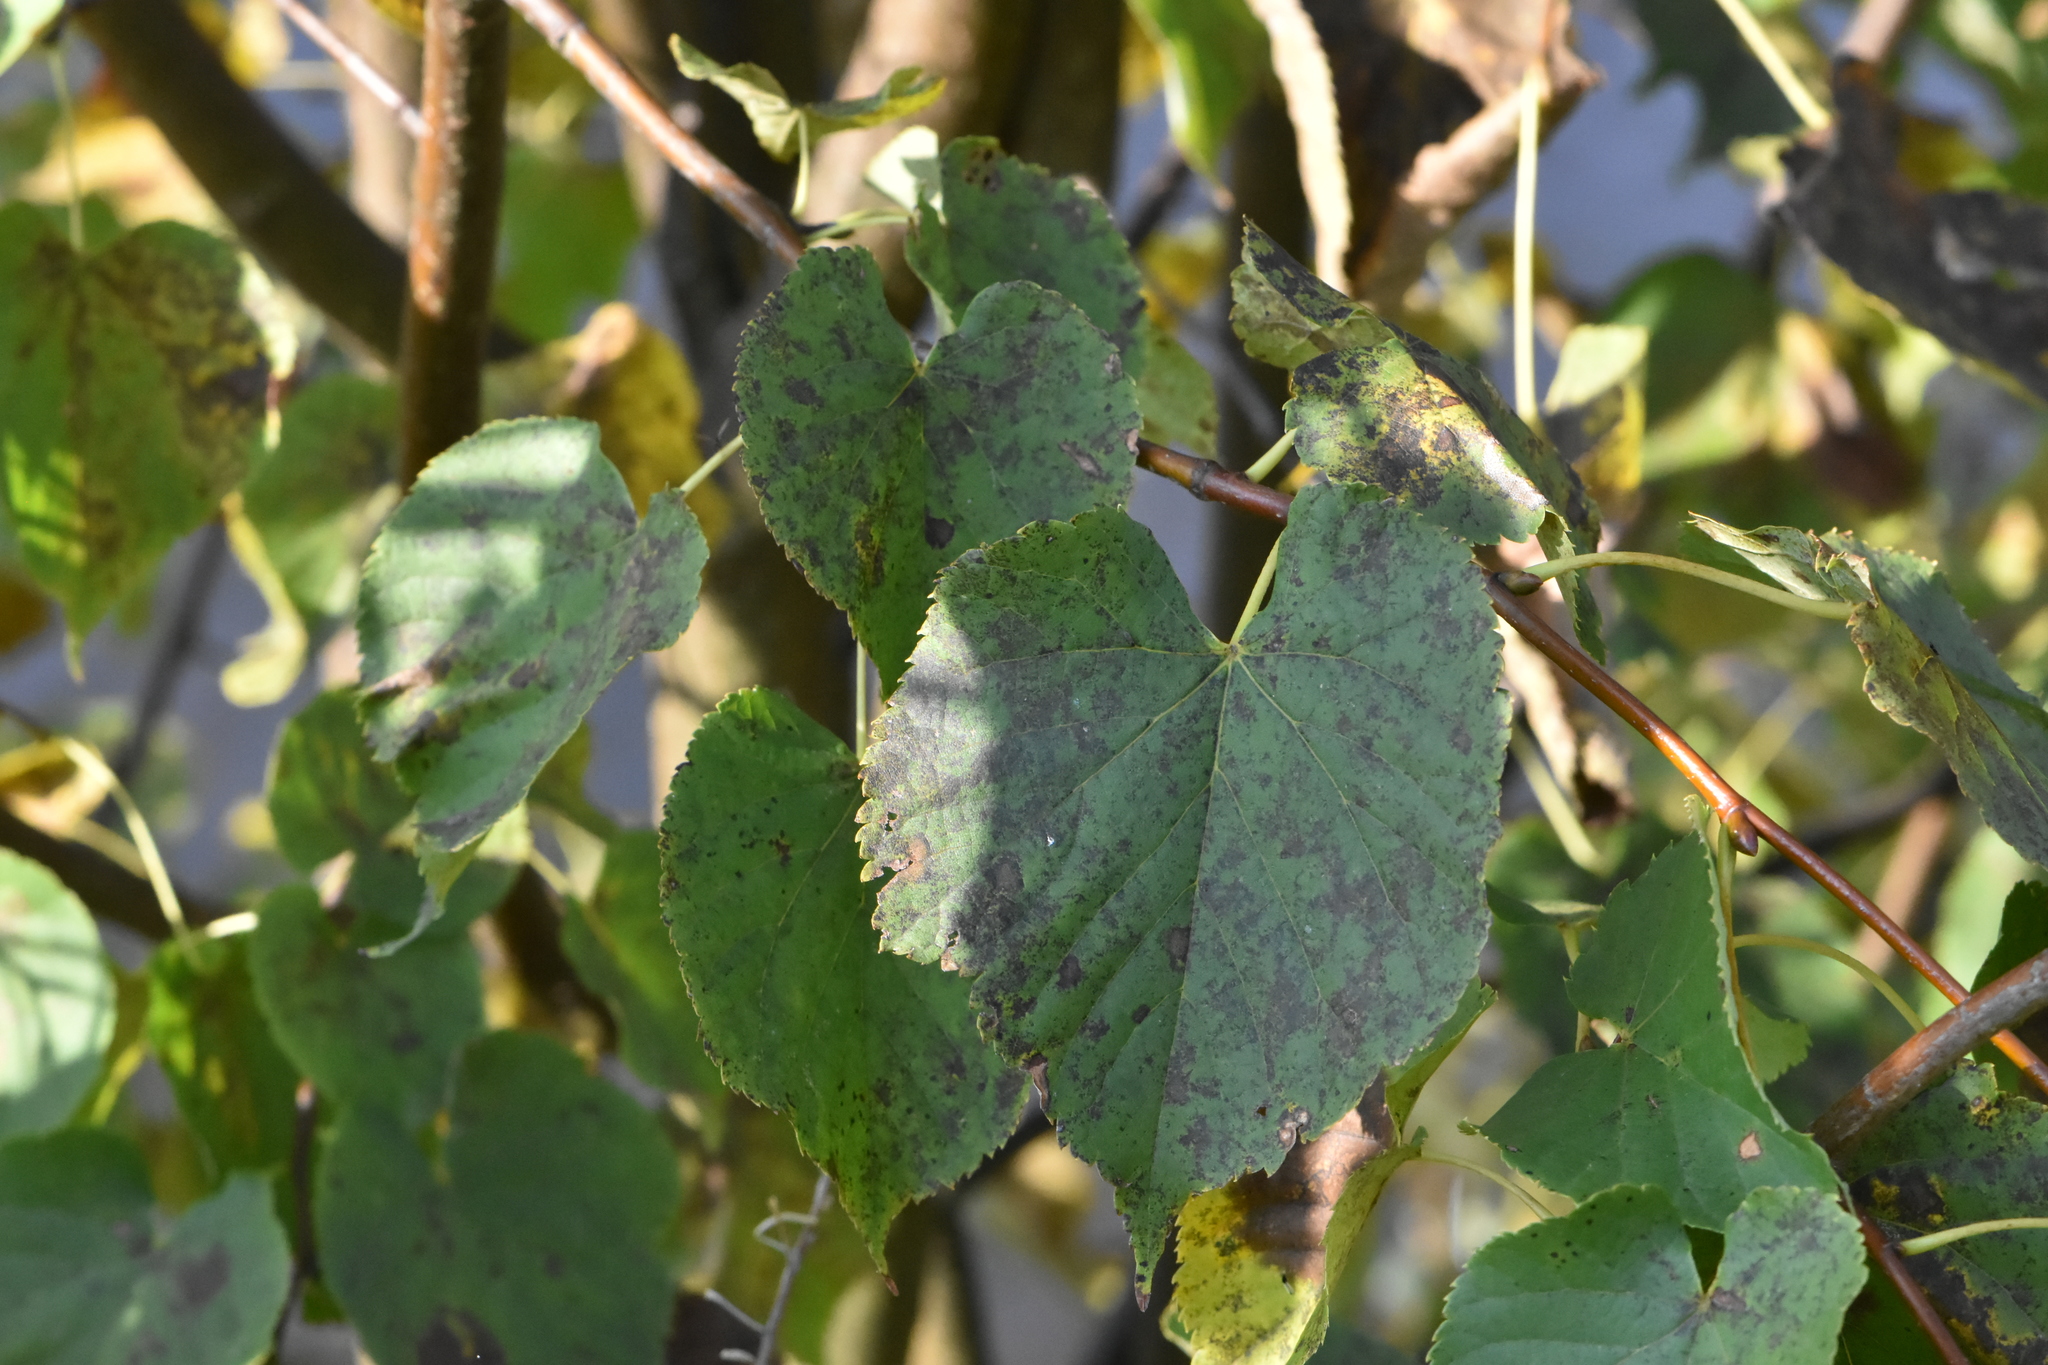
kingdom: Plantae
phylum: Tracheophyta
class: Magnoliopsida
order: Malvales
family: Malvaceae
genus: Tilia
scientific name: Tilia cordata
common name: Small-leaved lime
